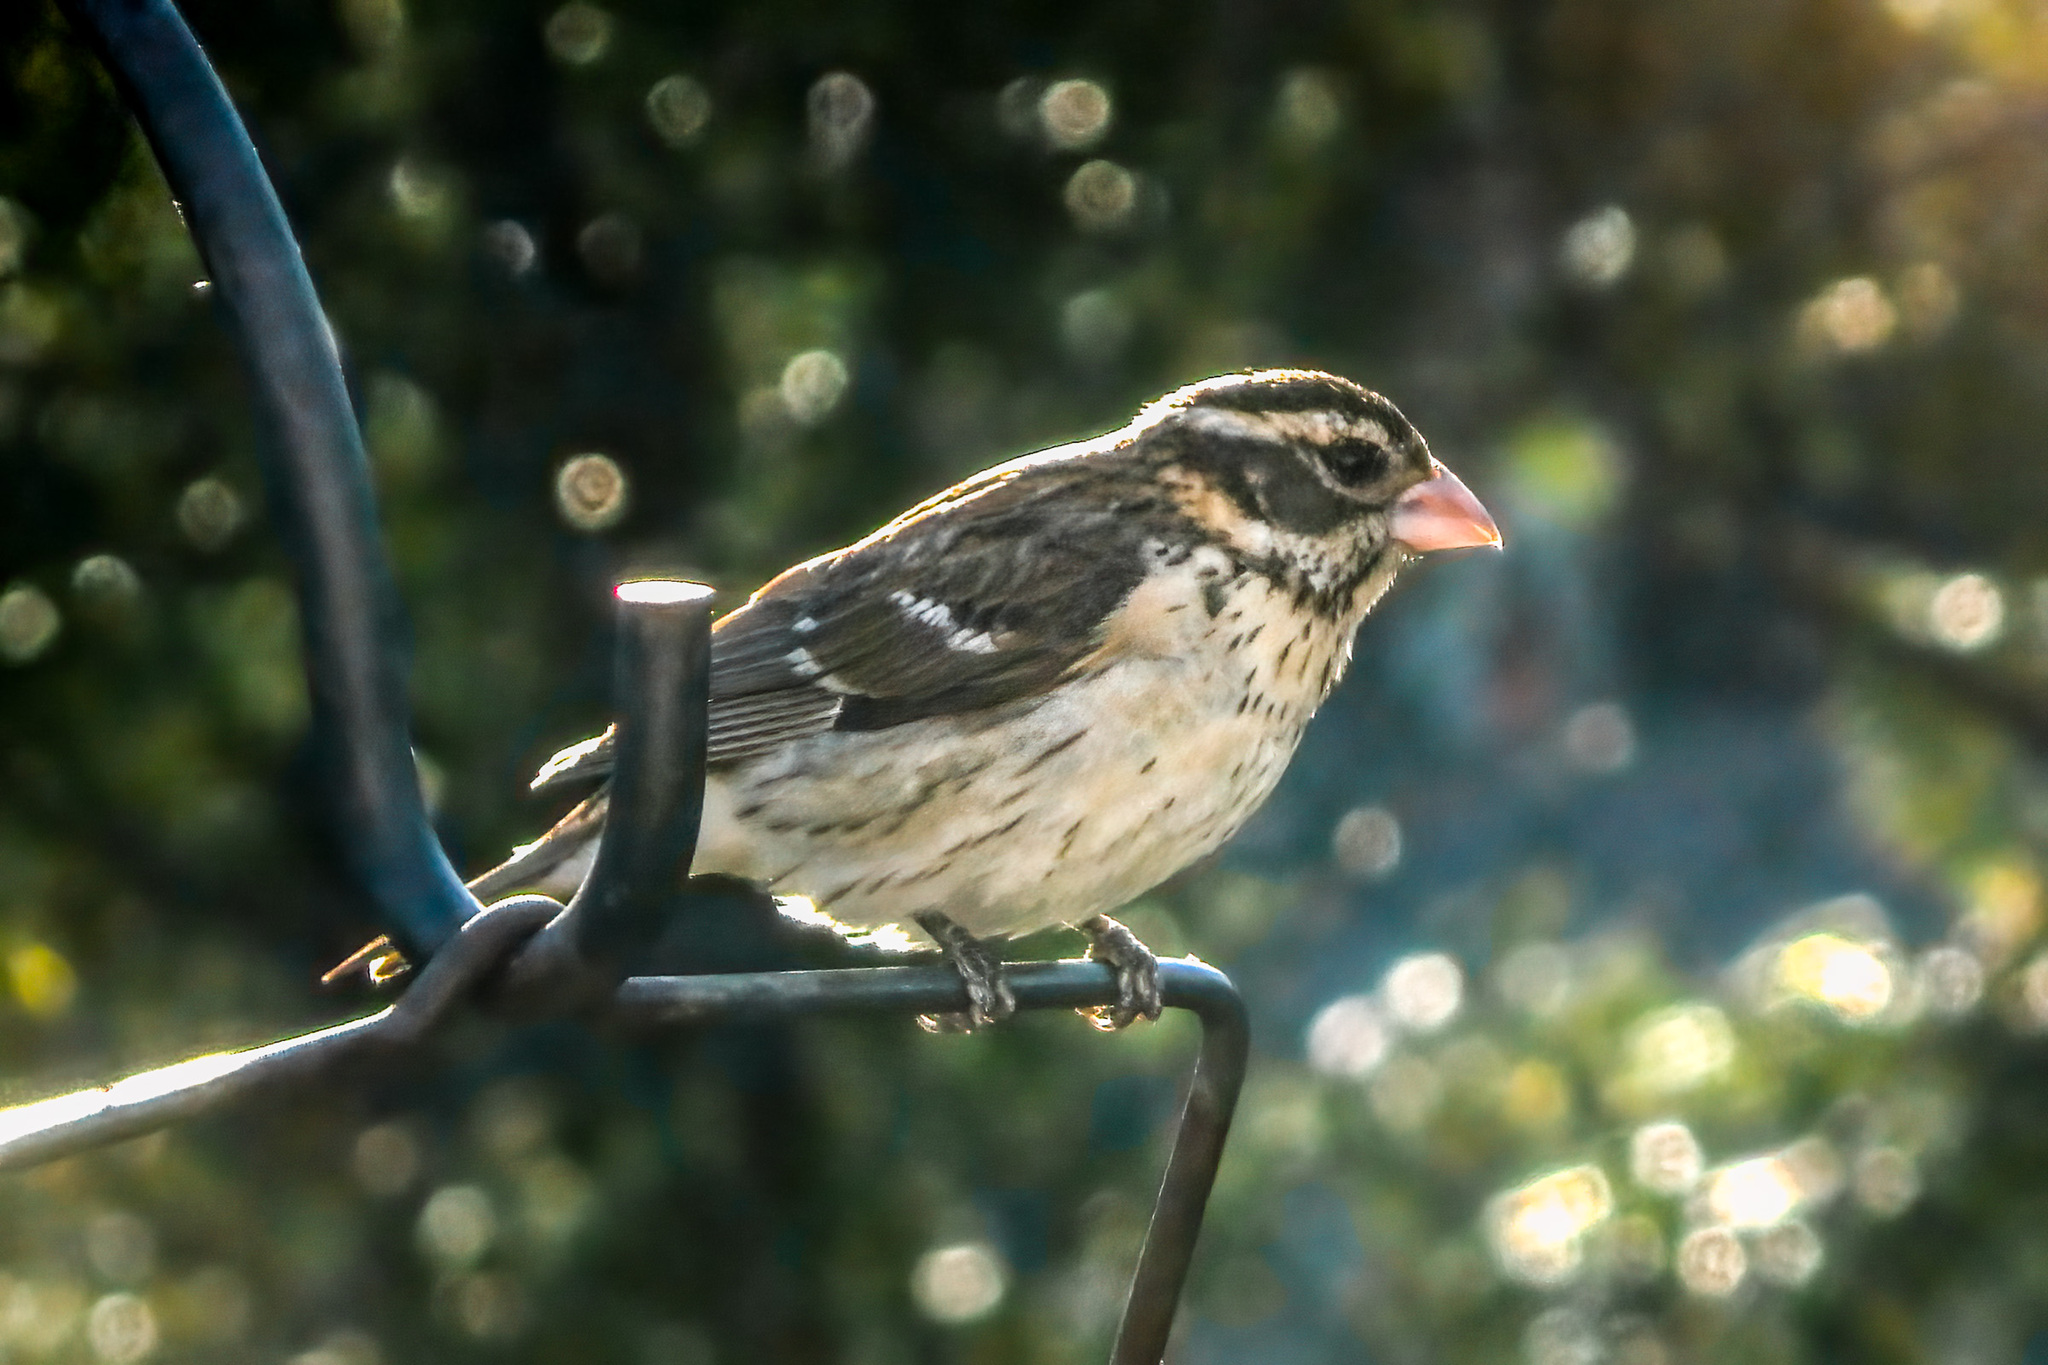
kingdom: Animalia
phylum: Chordata
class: Aves
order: Passeriformes
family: Cardinalidae
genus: Pheucticus
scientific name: Pheucticus ludovicianus
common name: Rose-breasted grosbeak
